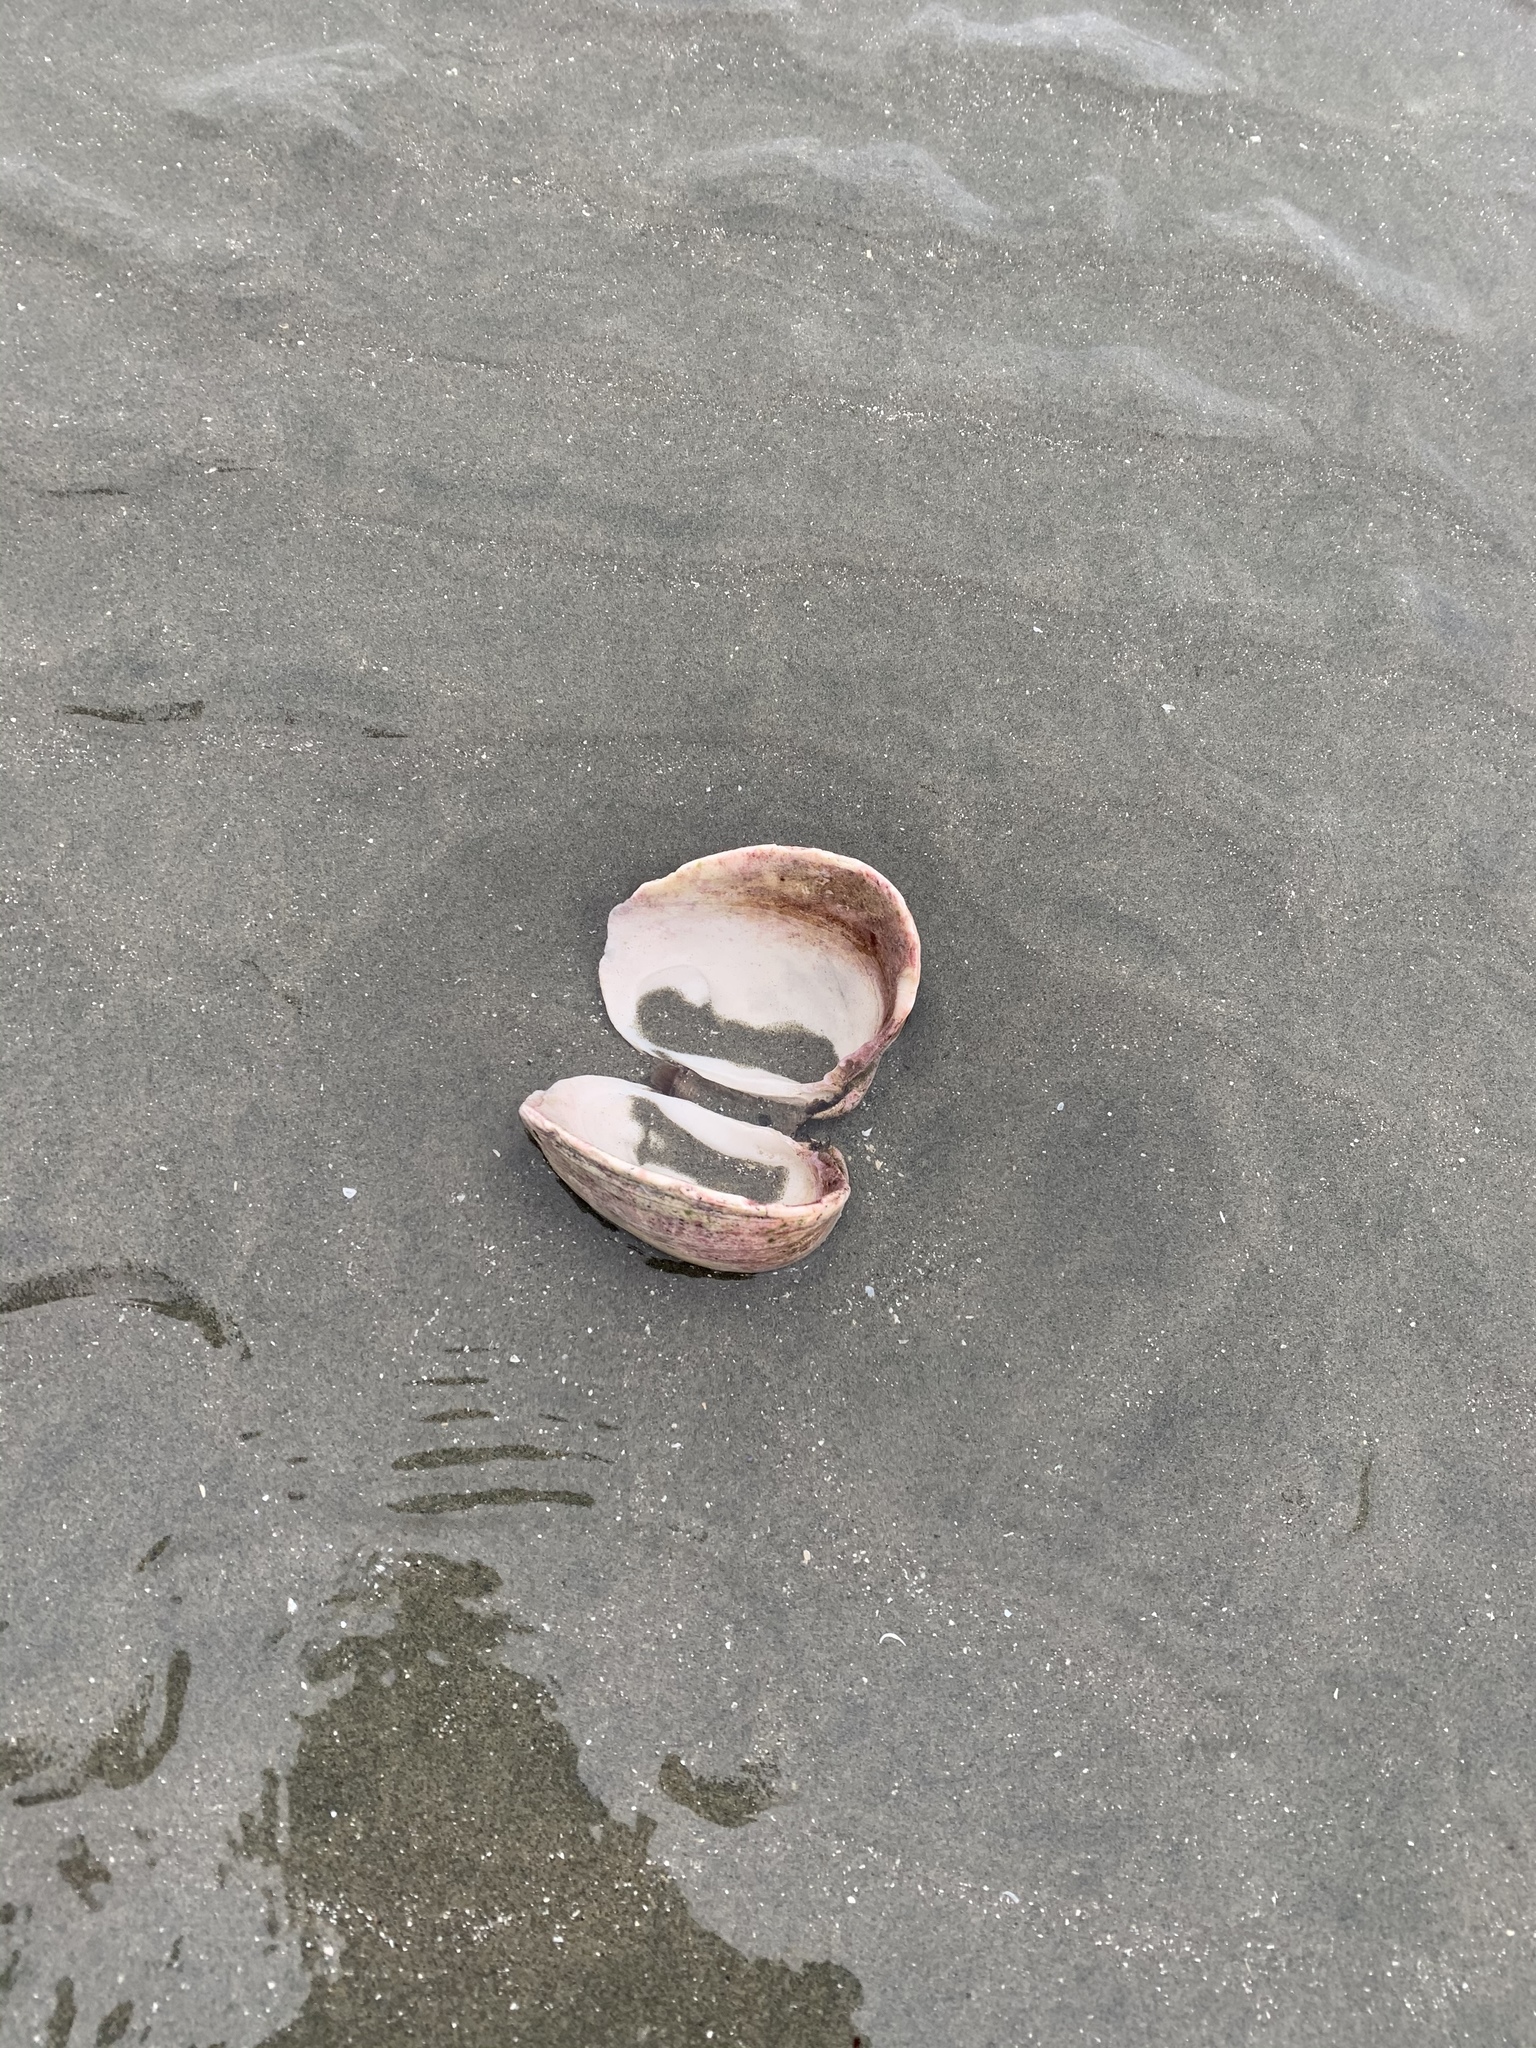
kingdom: Animalia
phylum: Mollusca
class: Bivalvia
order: Venerida
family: Veneridae
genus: Saxidomus
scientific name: Saxidomus gigantea
